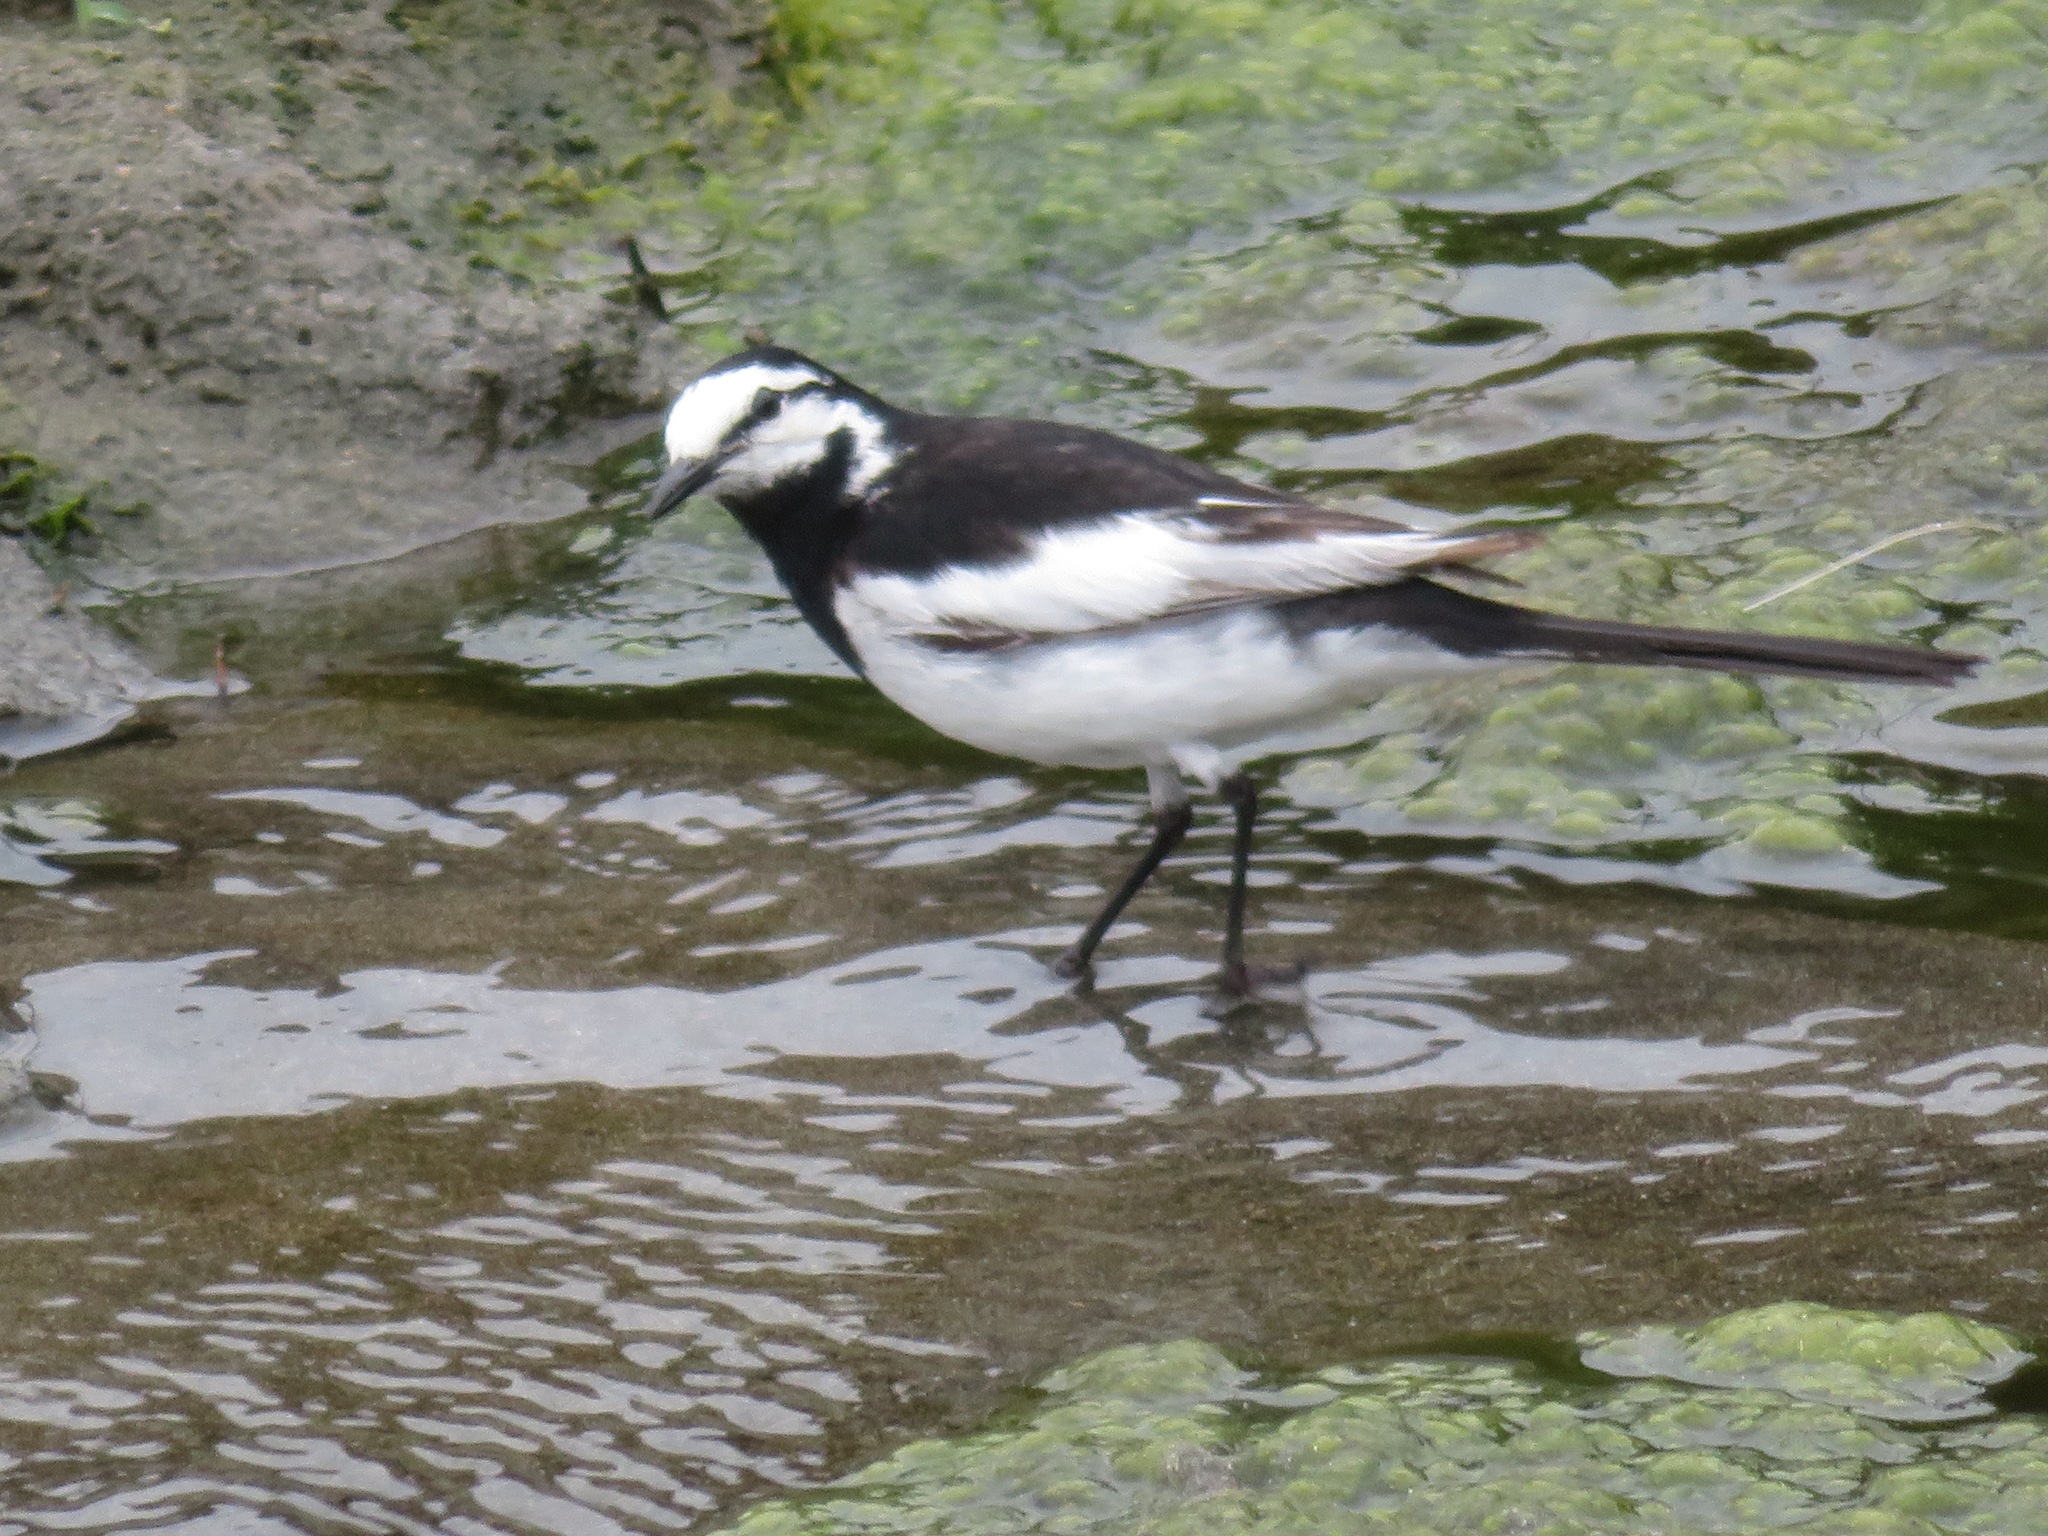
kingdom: Animalia
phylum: Chordata
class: Aves
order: Passeriformes
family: Motacillidae
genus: Motacilla
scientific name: Motacilla alba
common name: White wagtail
